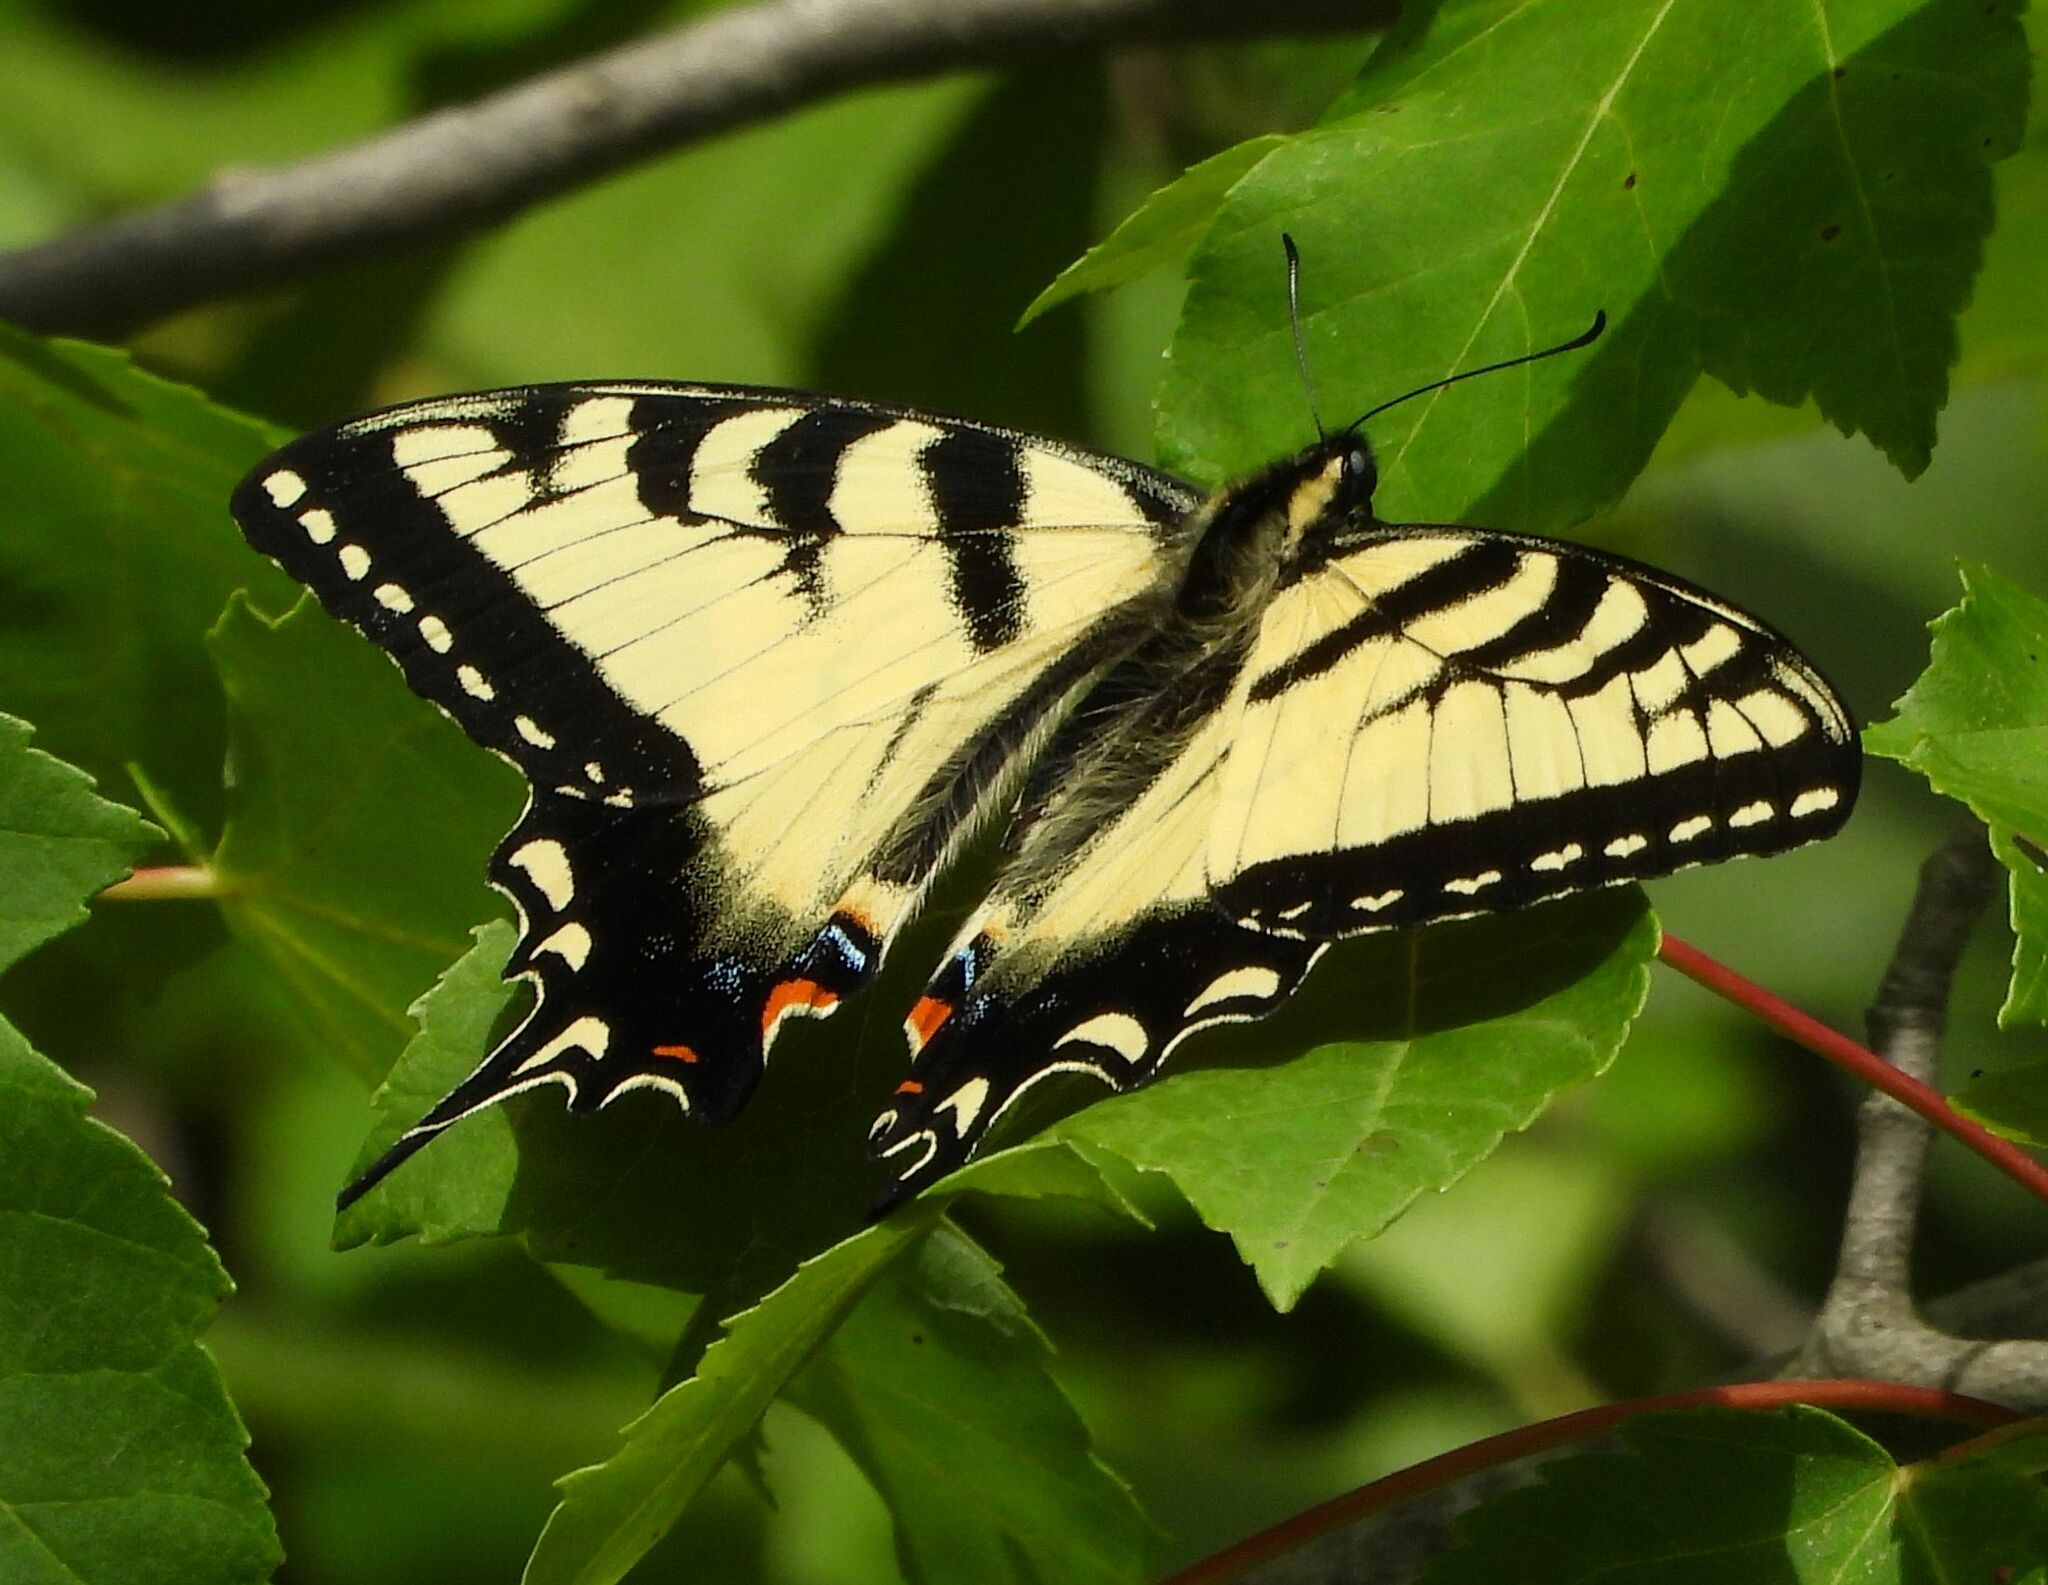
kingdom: Animalia
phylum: Arthropoda
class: Insecta
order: Lepidoptera
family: Papilionidae
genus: Papilio
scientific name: Papilio
